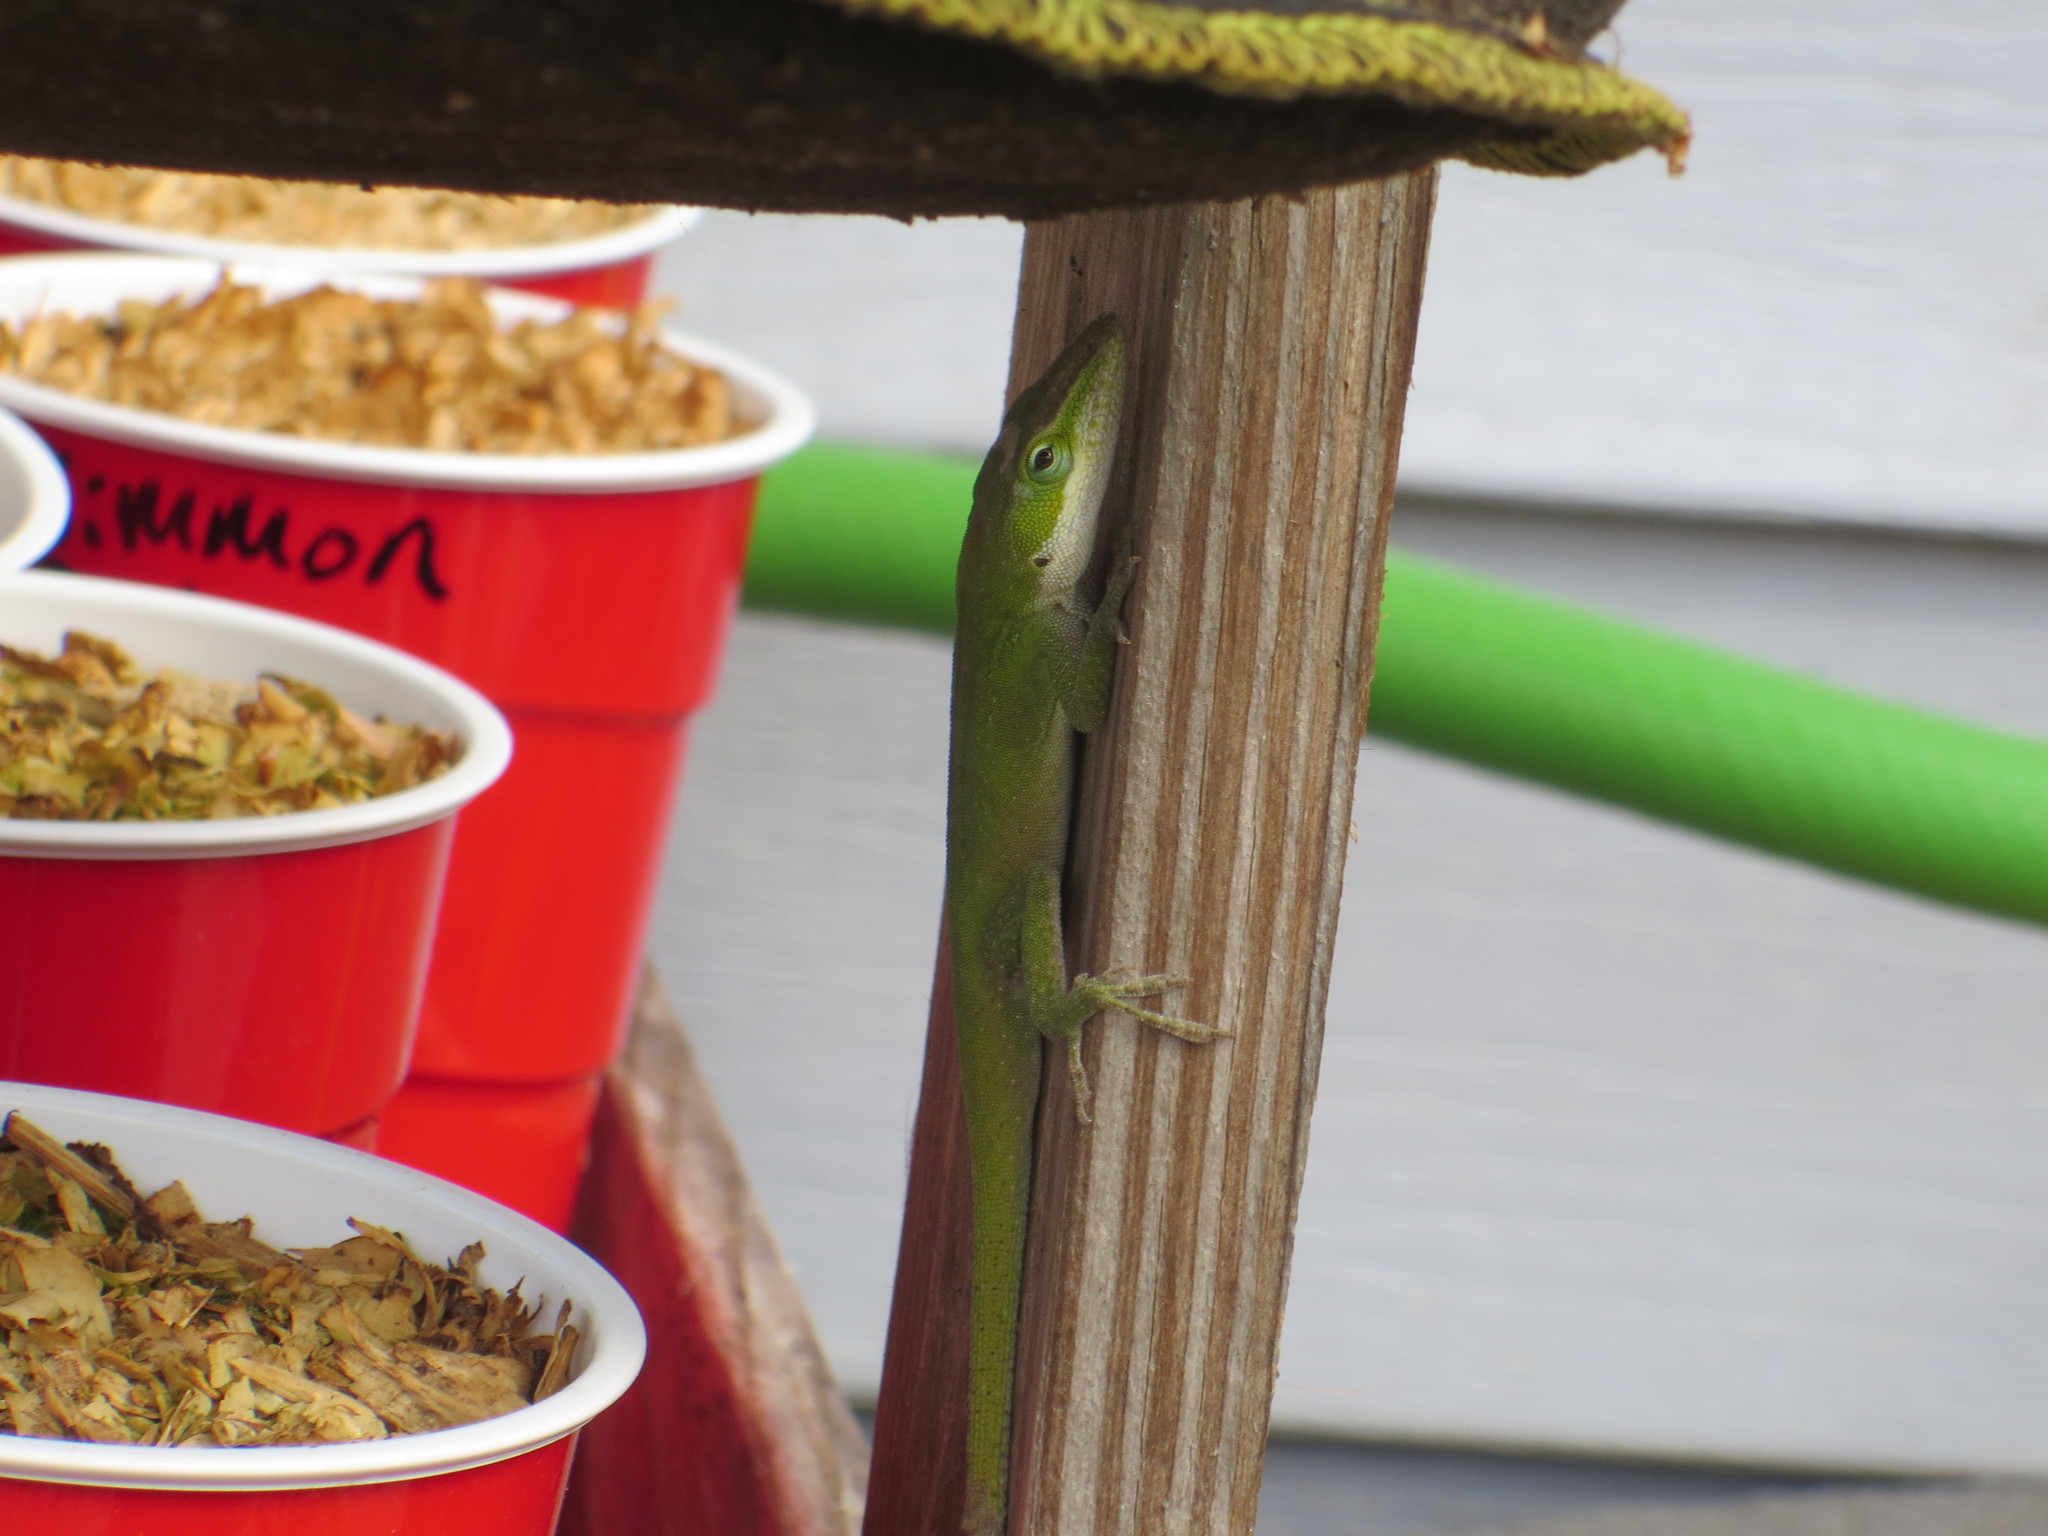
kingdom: Animalia
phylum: Chordata
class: Squamata
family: Dactyloidae
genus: Anolis
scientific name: Anolis carolinensis
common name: Green anole
